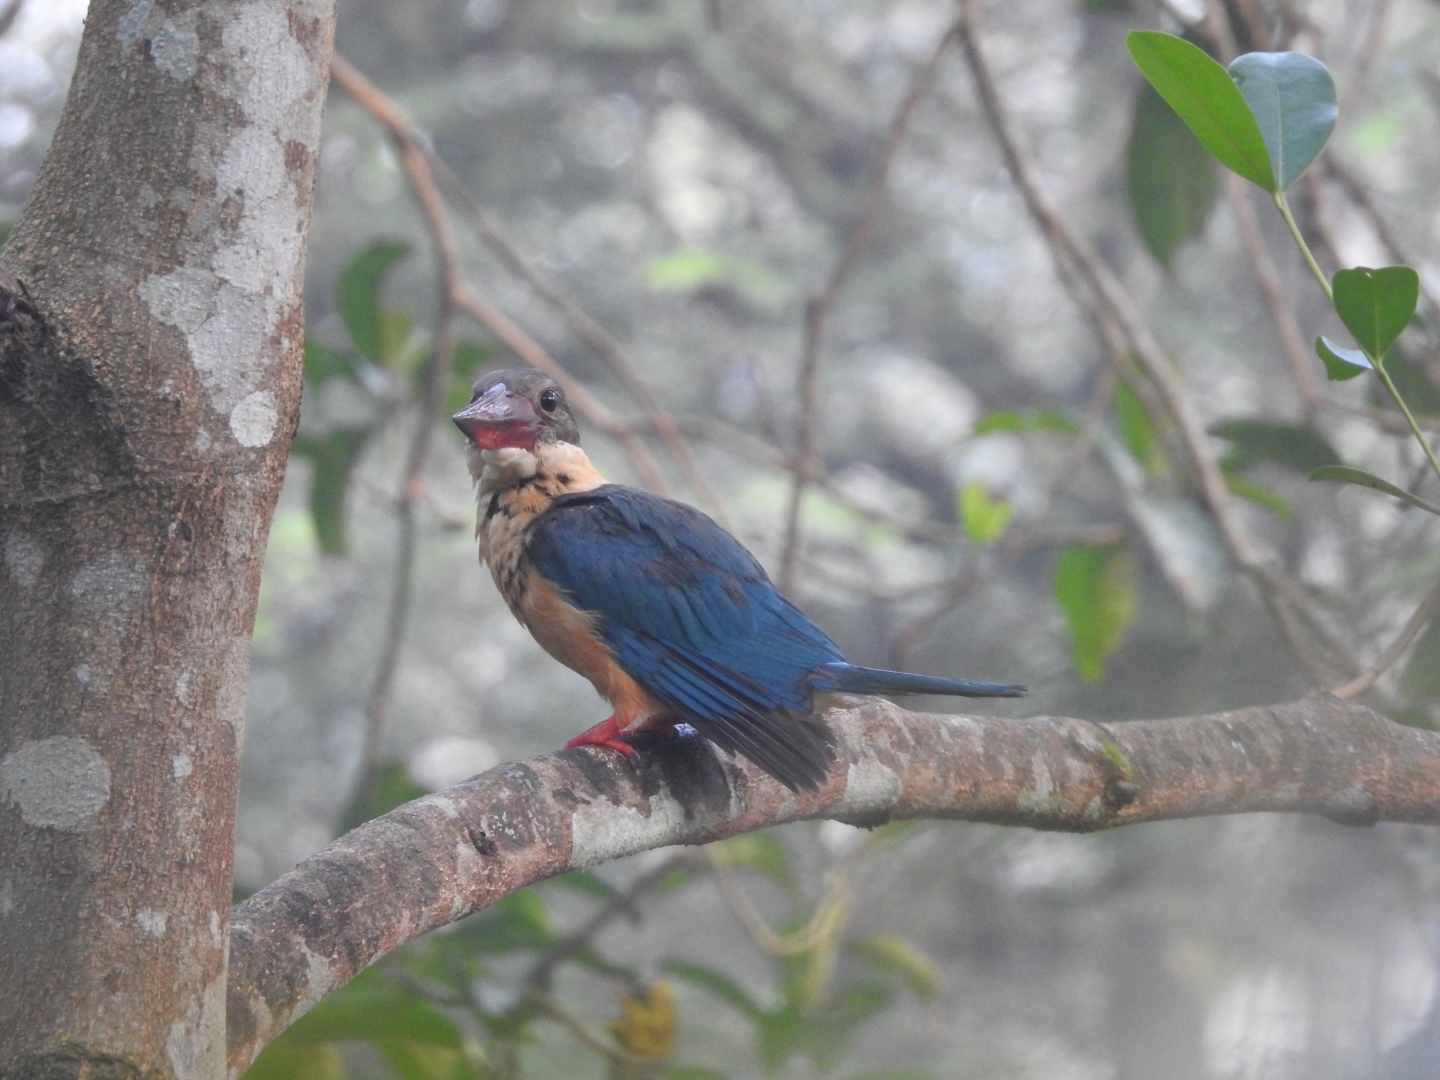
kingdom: Animalia
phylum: Chordata
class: Aves
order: Coraciiformes
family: Alcedinidae
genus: Pelargopsis
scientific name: Pelargopsis capensis
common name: Stork-billed kingfisher
